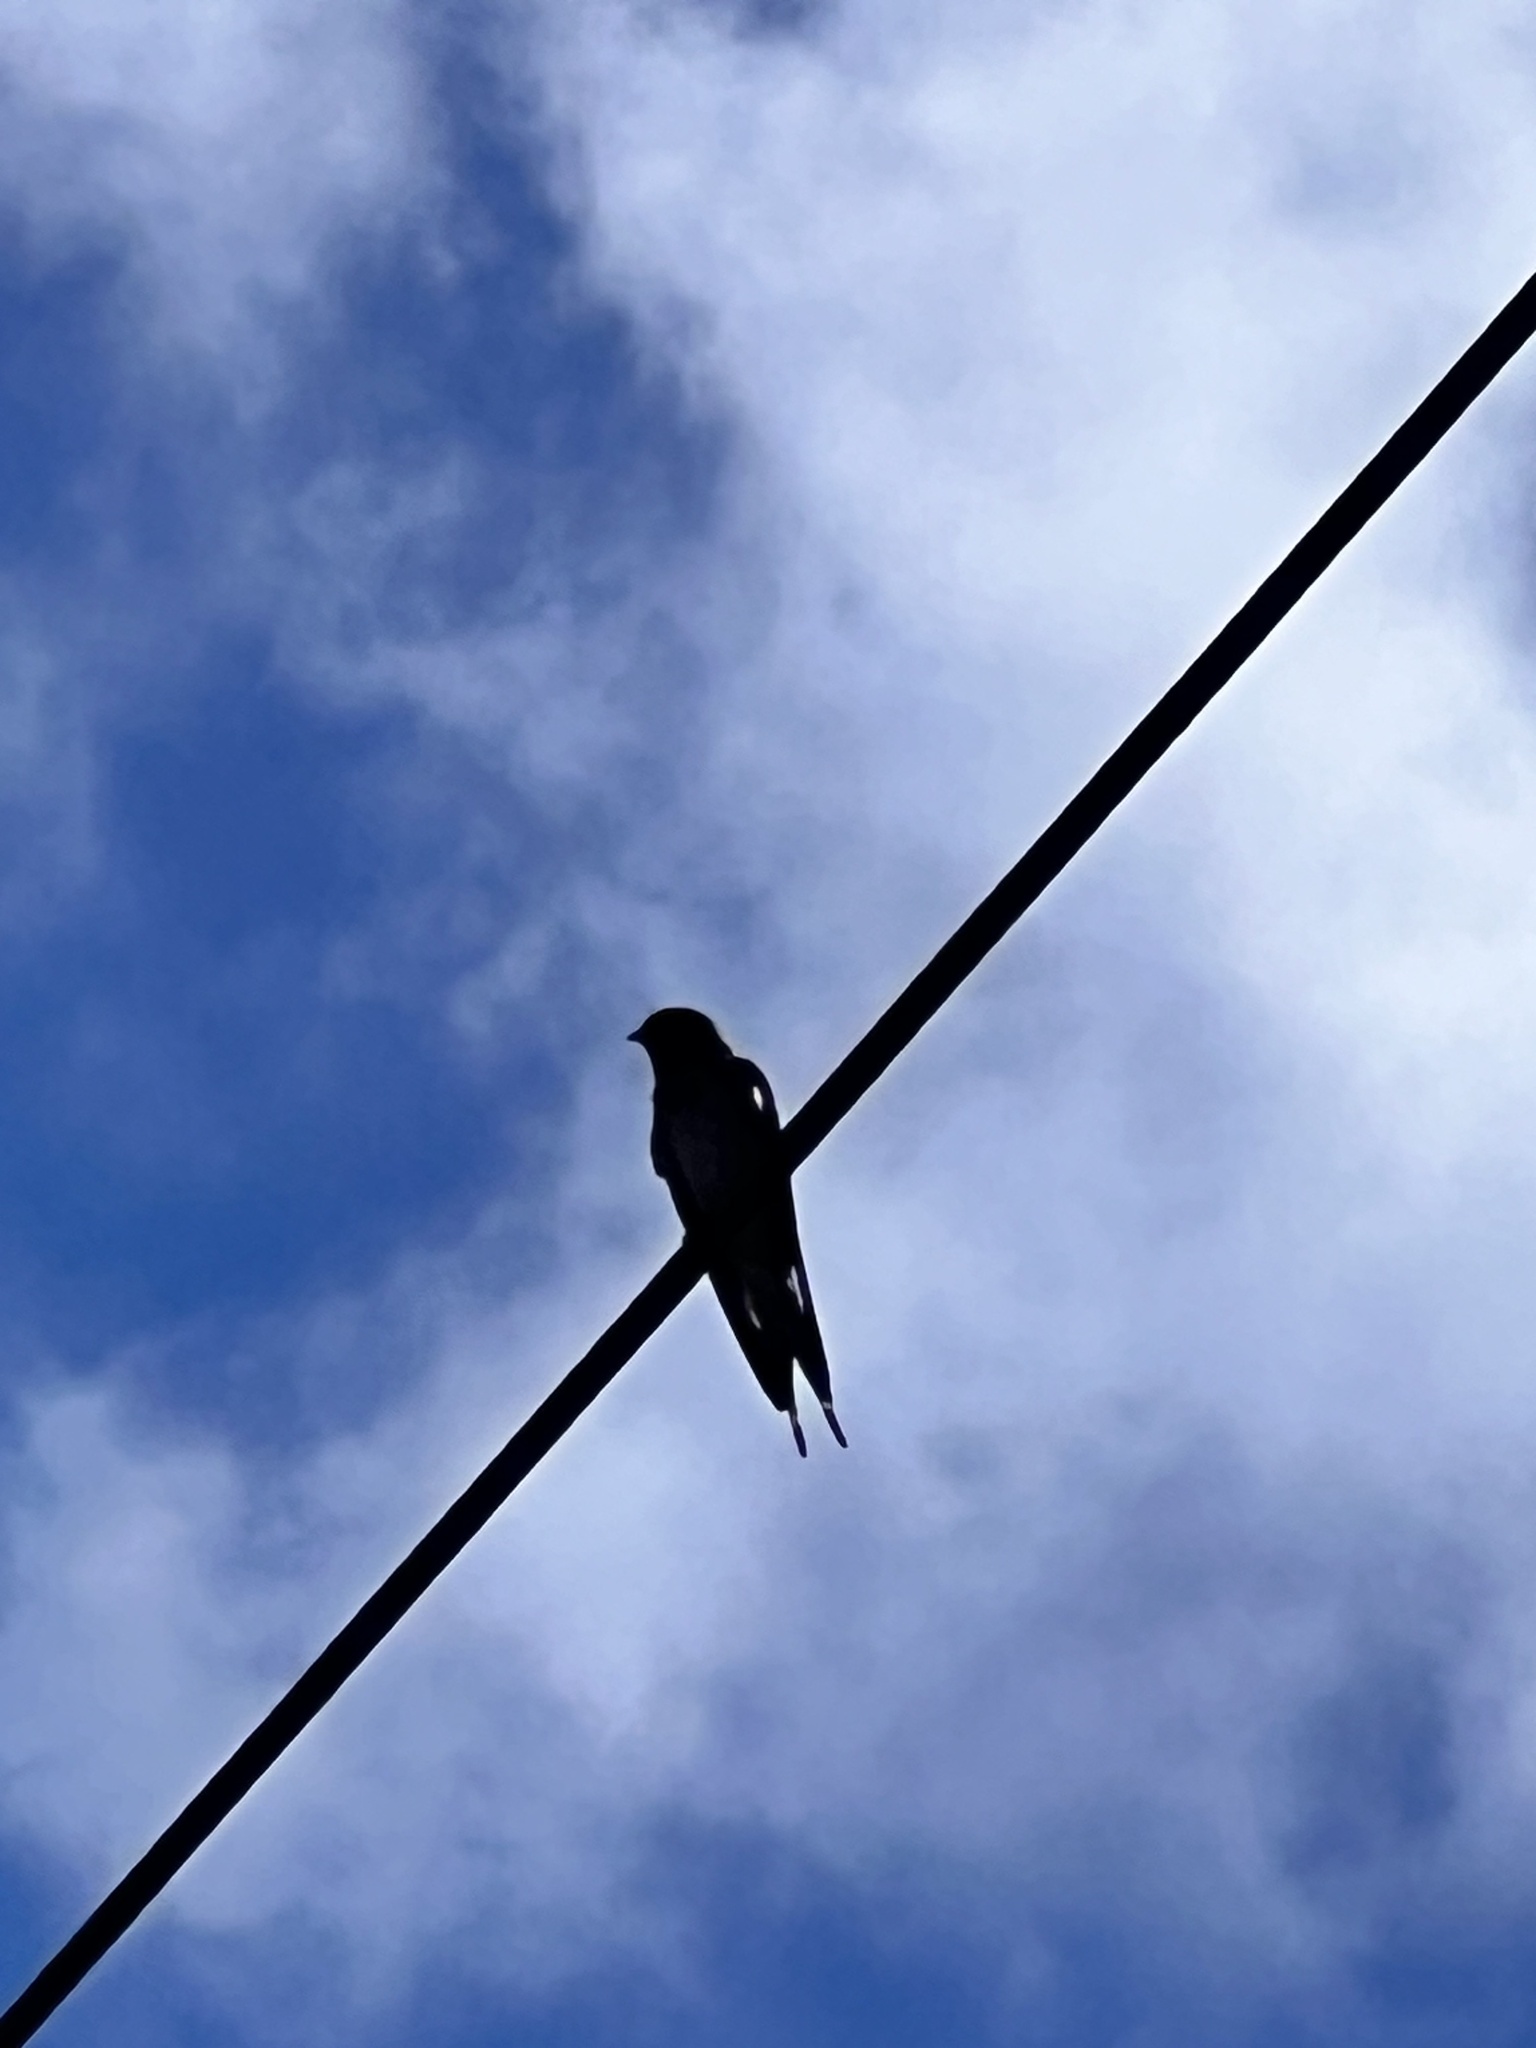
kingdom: Animalia
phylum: Chordata
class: Aves
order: Passeriformes
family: Hirundinidae
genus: Hirundo
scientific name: Hirundo neoxena
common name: Welcome swallow
